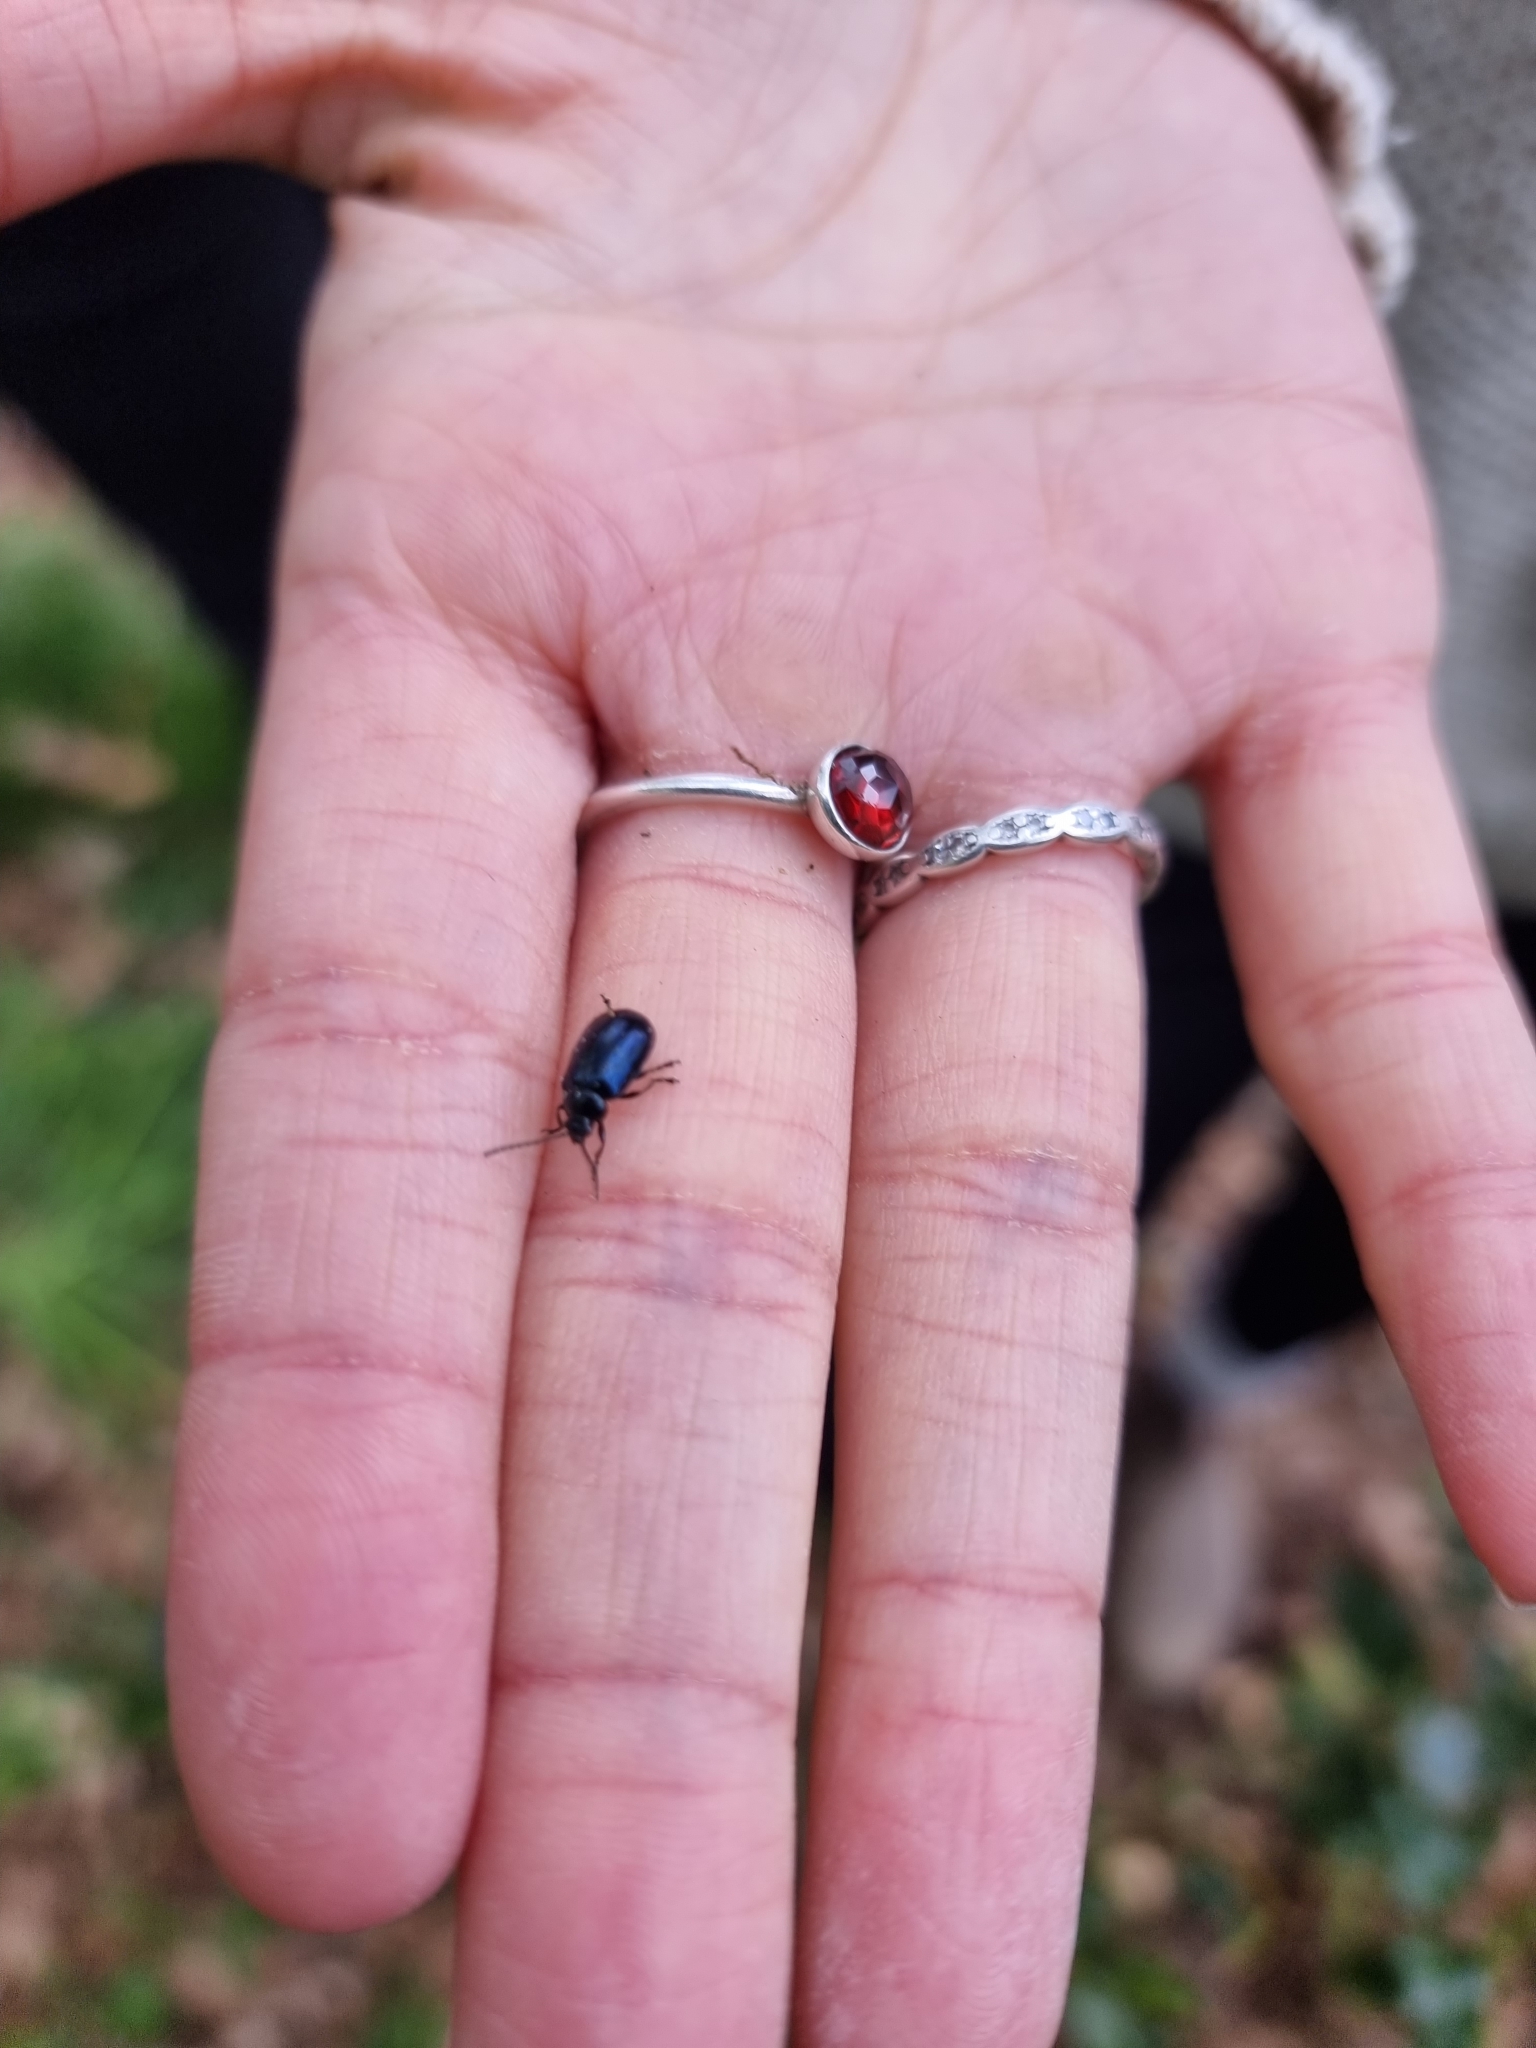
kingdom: Animalia
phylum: Arthropoda
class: Insecta
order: Coleoptera
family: Chrysomelidae
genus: Agelastica
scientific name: Agelastica alni
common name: Alder leaf beetle
